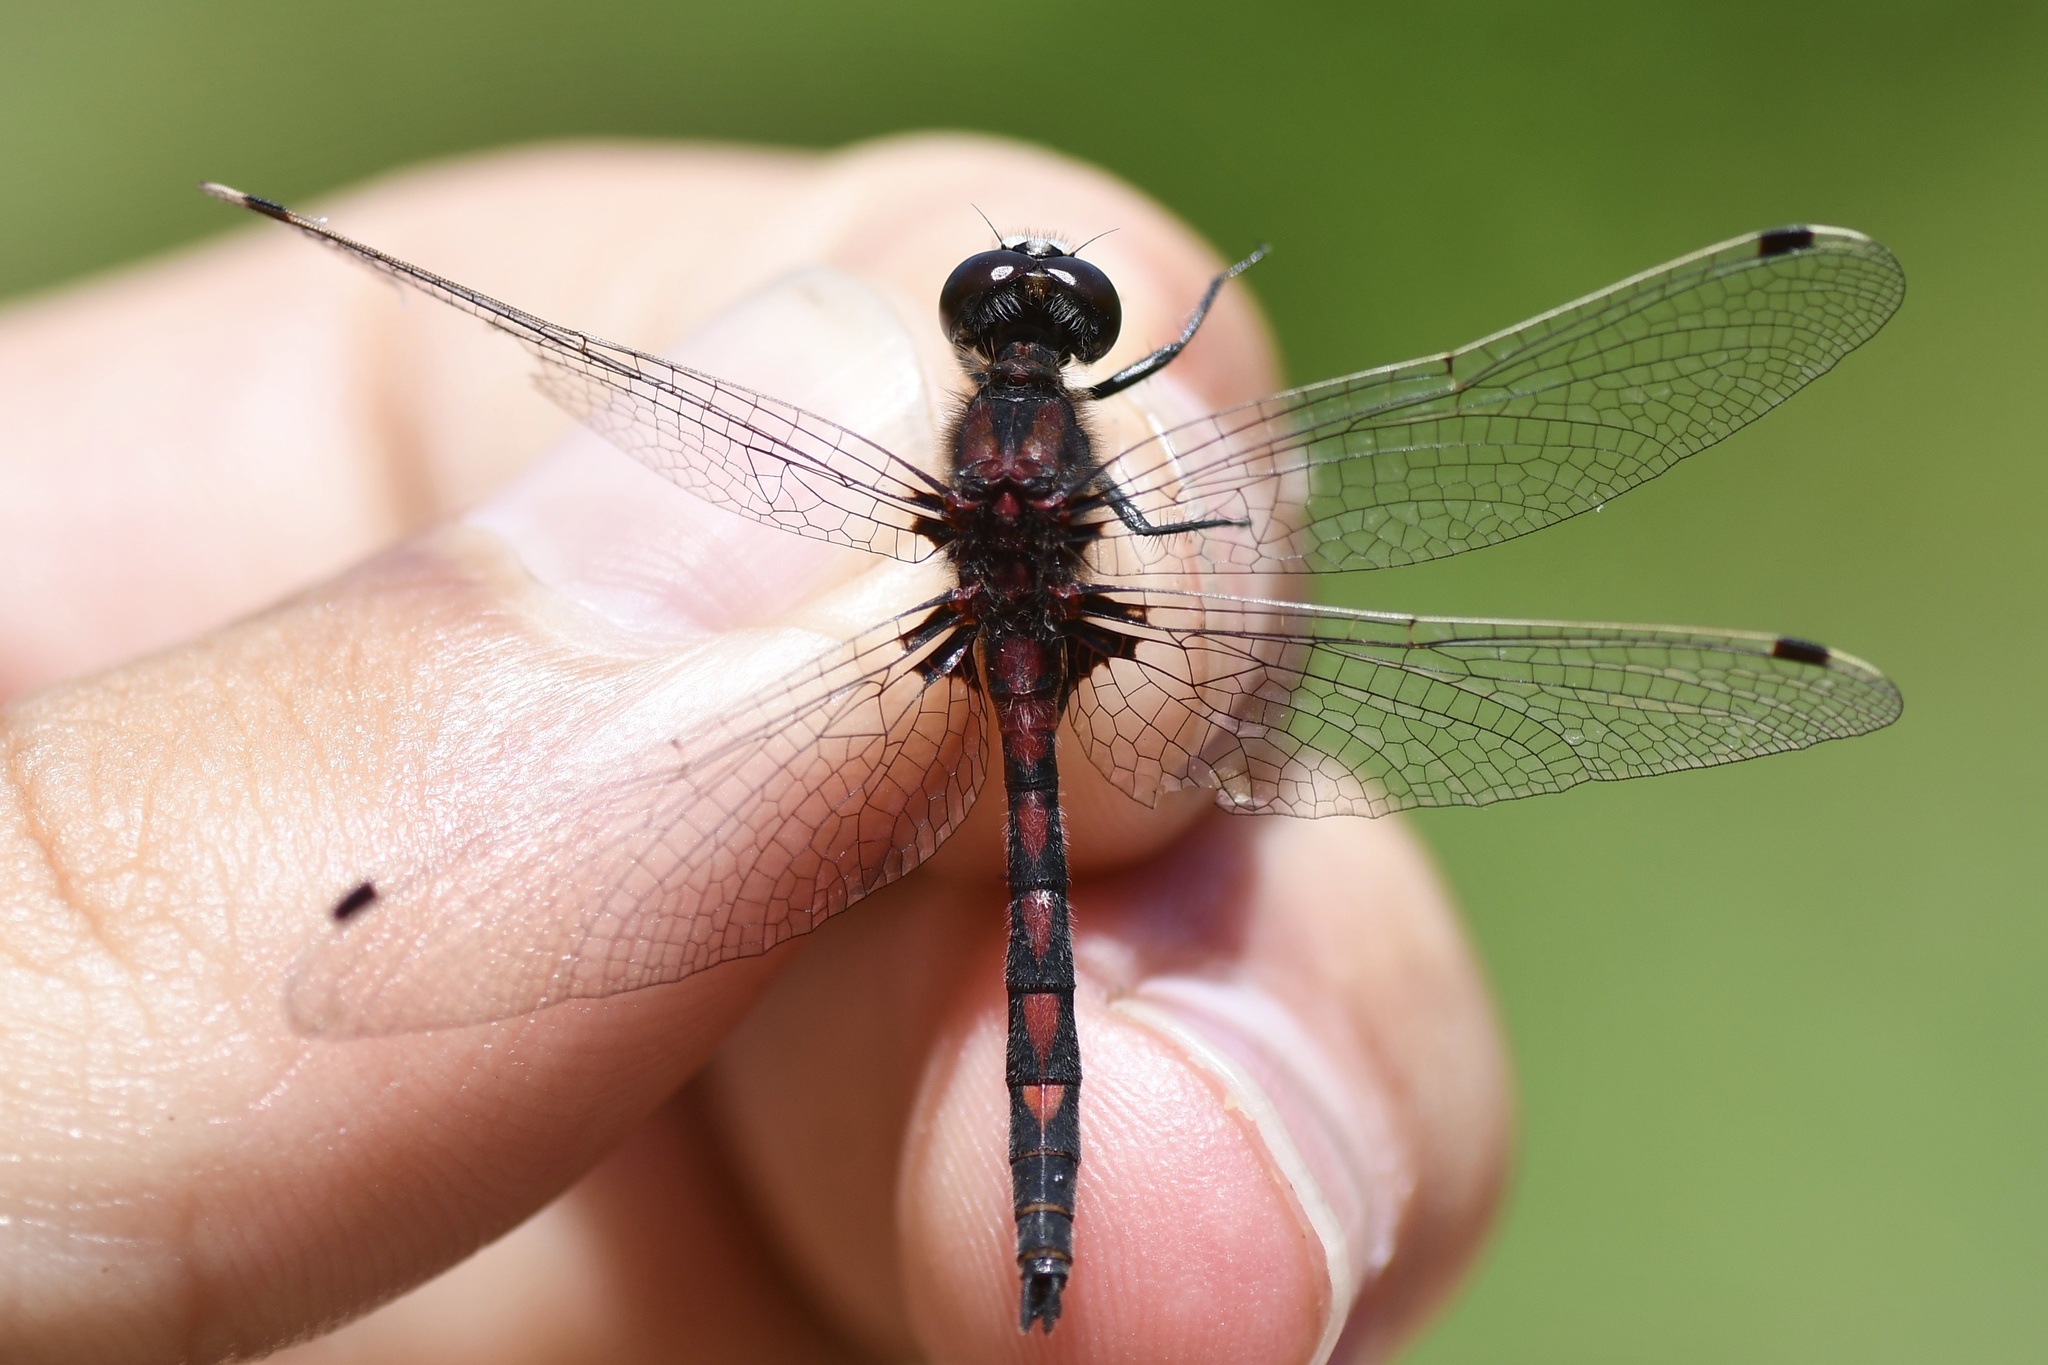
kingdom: Animalia
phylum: Arthropoda
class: Insecta
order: Odonata
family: Libellulidae
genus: Leucorrhinia
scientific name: Leucorrhinia hudsonica
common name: Hudsonian whiteface
